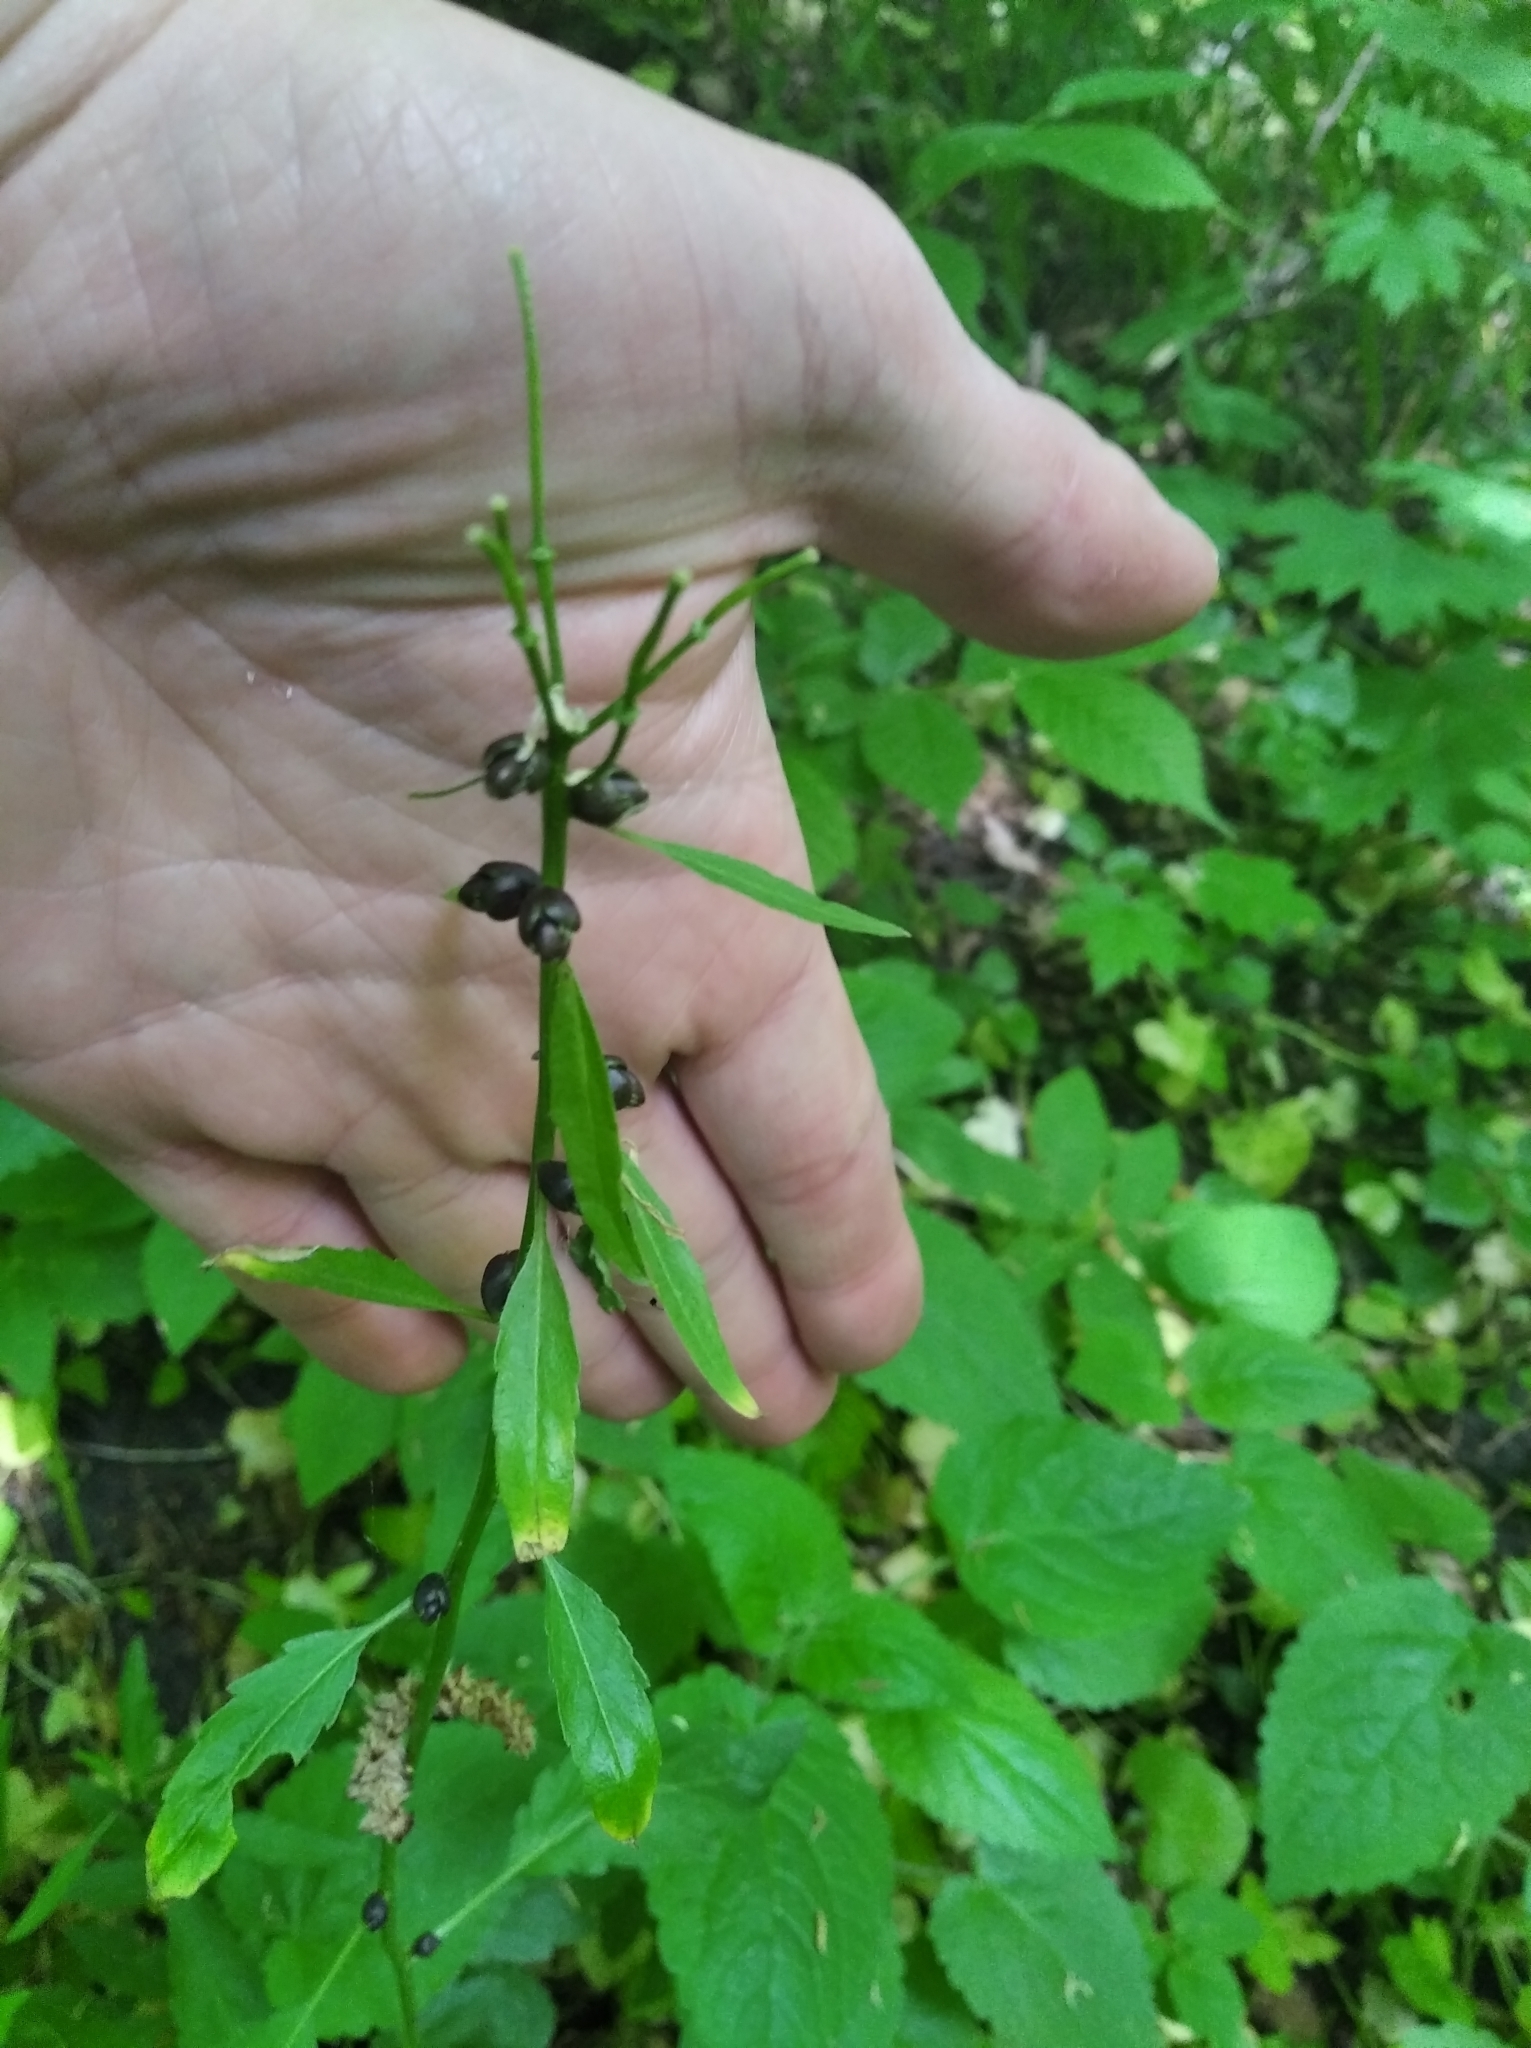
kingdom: Plantae
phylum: Tracheophyta
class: Magnoliopsida
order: Brassicales
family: Brassicaceae
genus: Cardamine
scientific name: Cardamine bulbifera
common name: Coralroot bittercress
